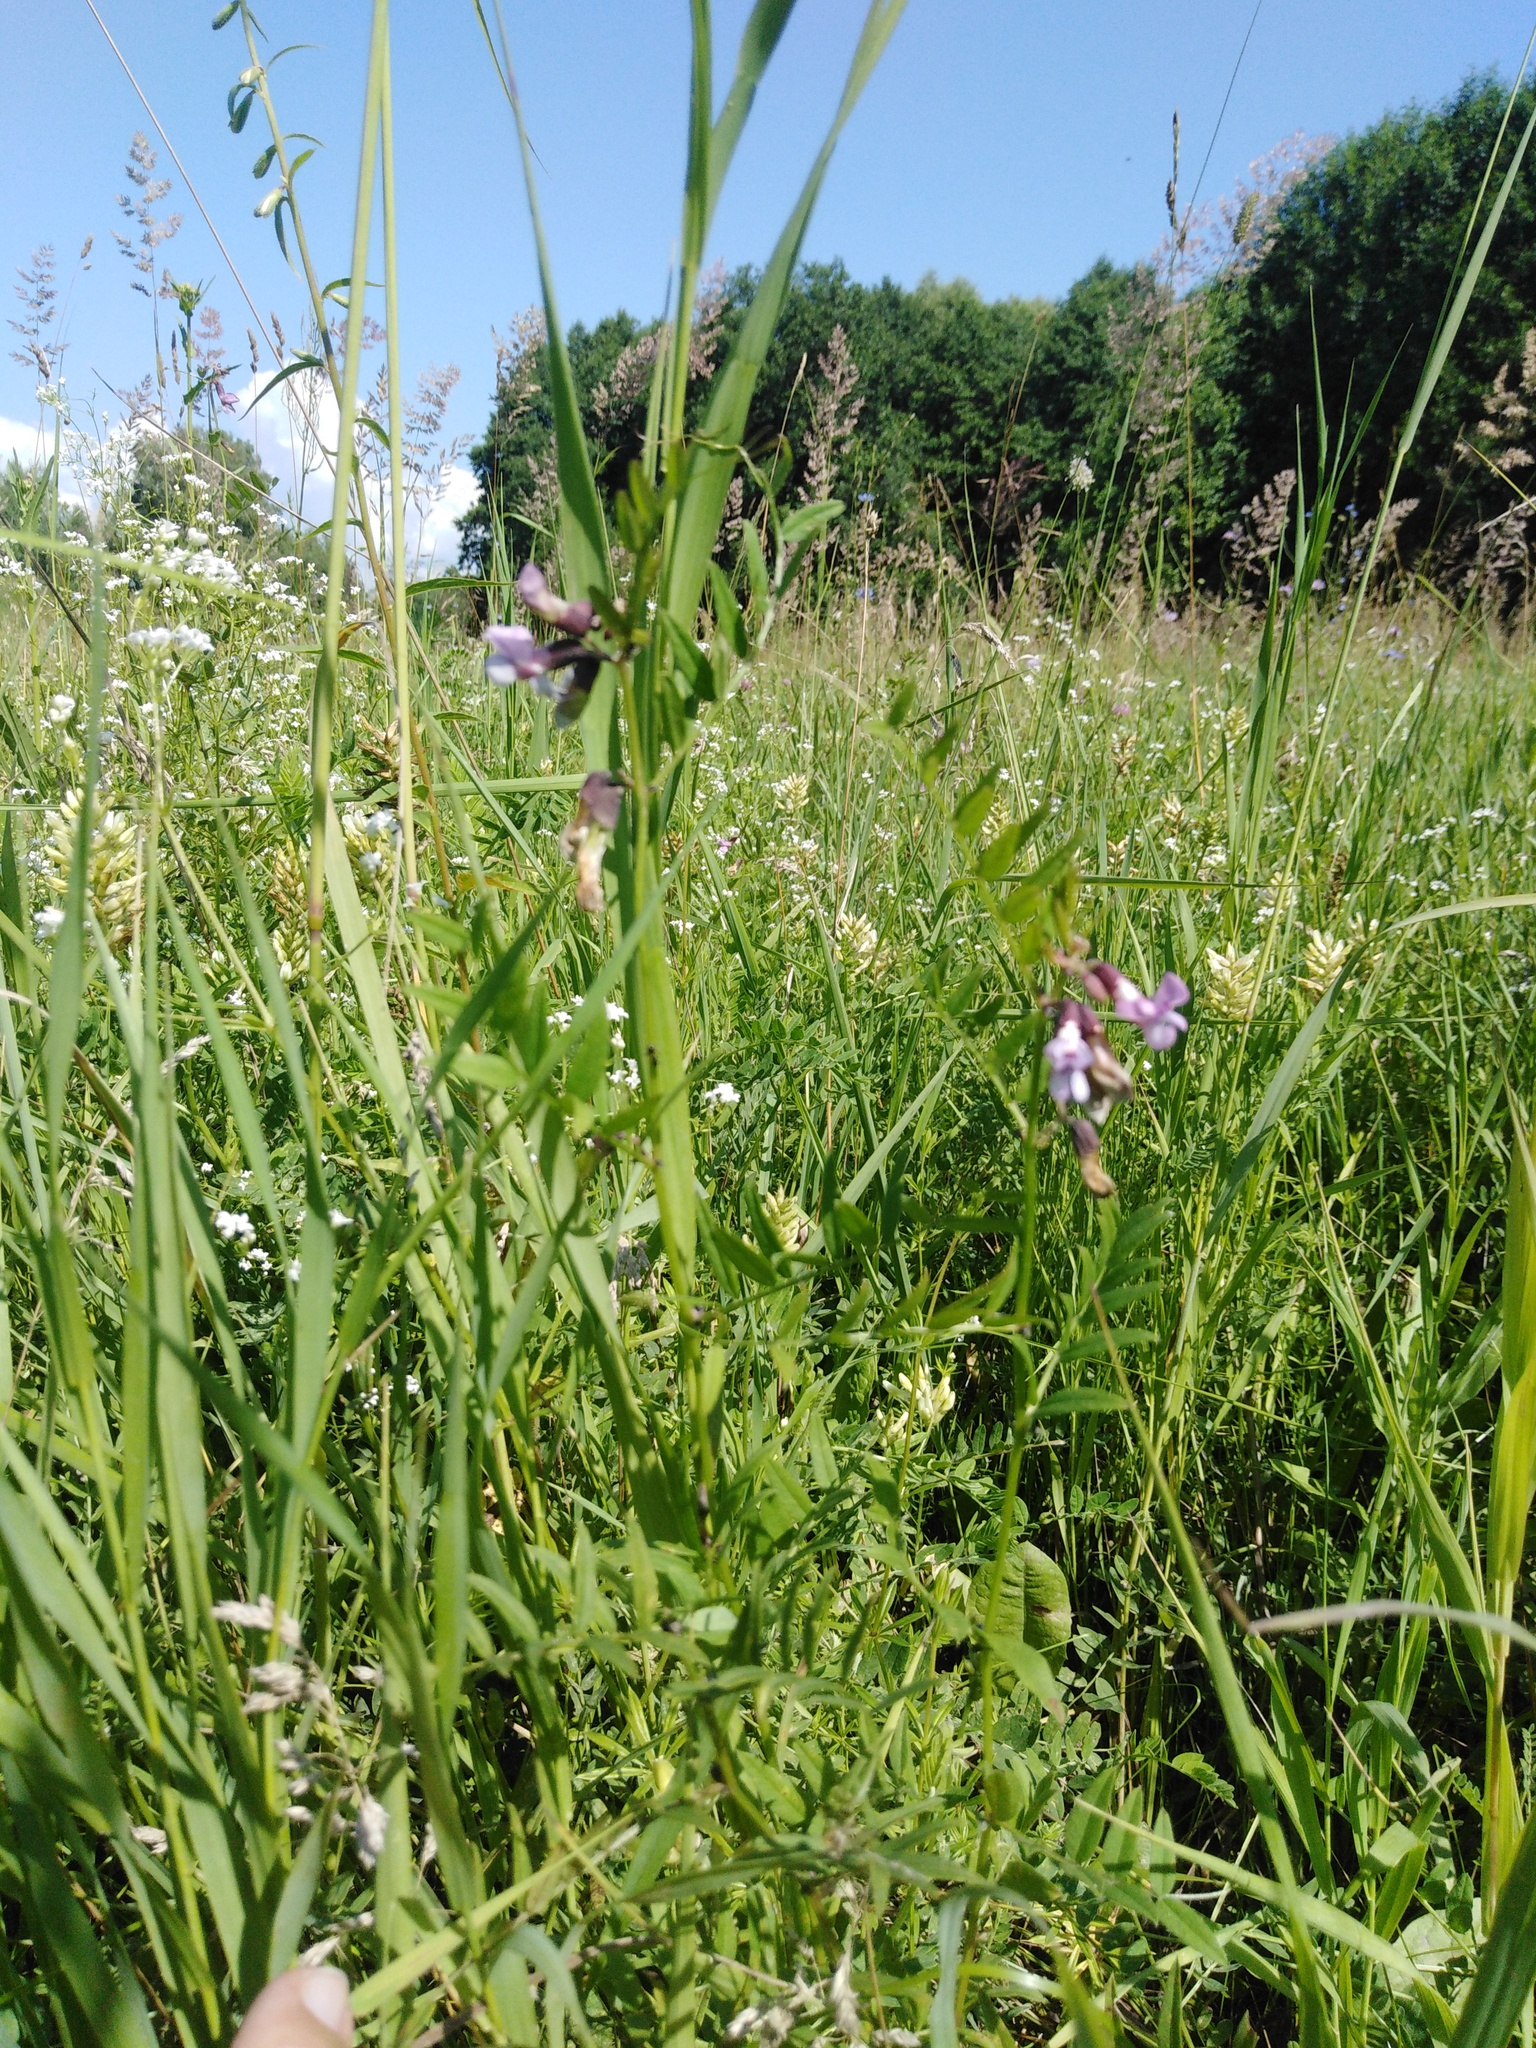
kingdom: Plantae
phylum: Tracheophyta
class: Magnoliopsida
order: Fabales
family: Fabaceae
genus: Vicia
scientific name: Vicia sepium
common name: Bush vetch
